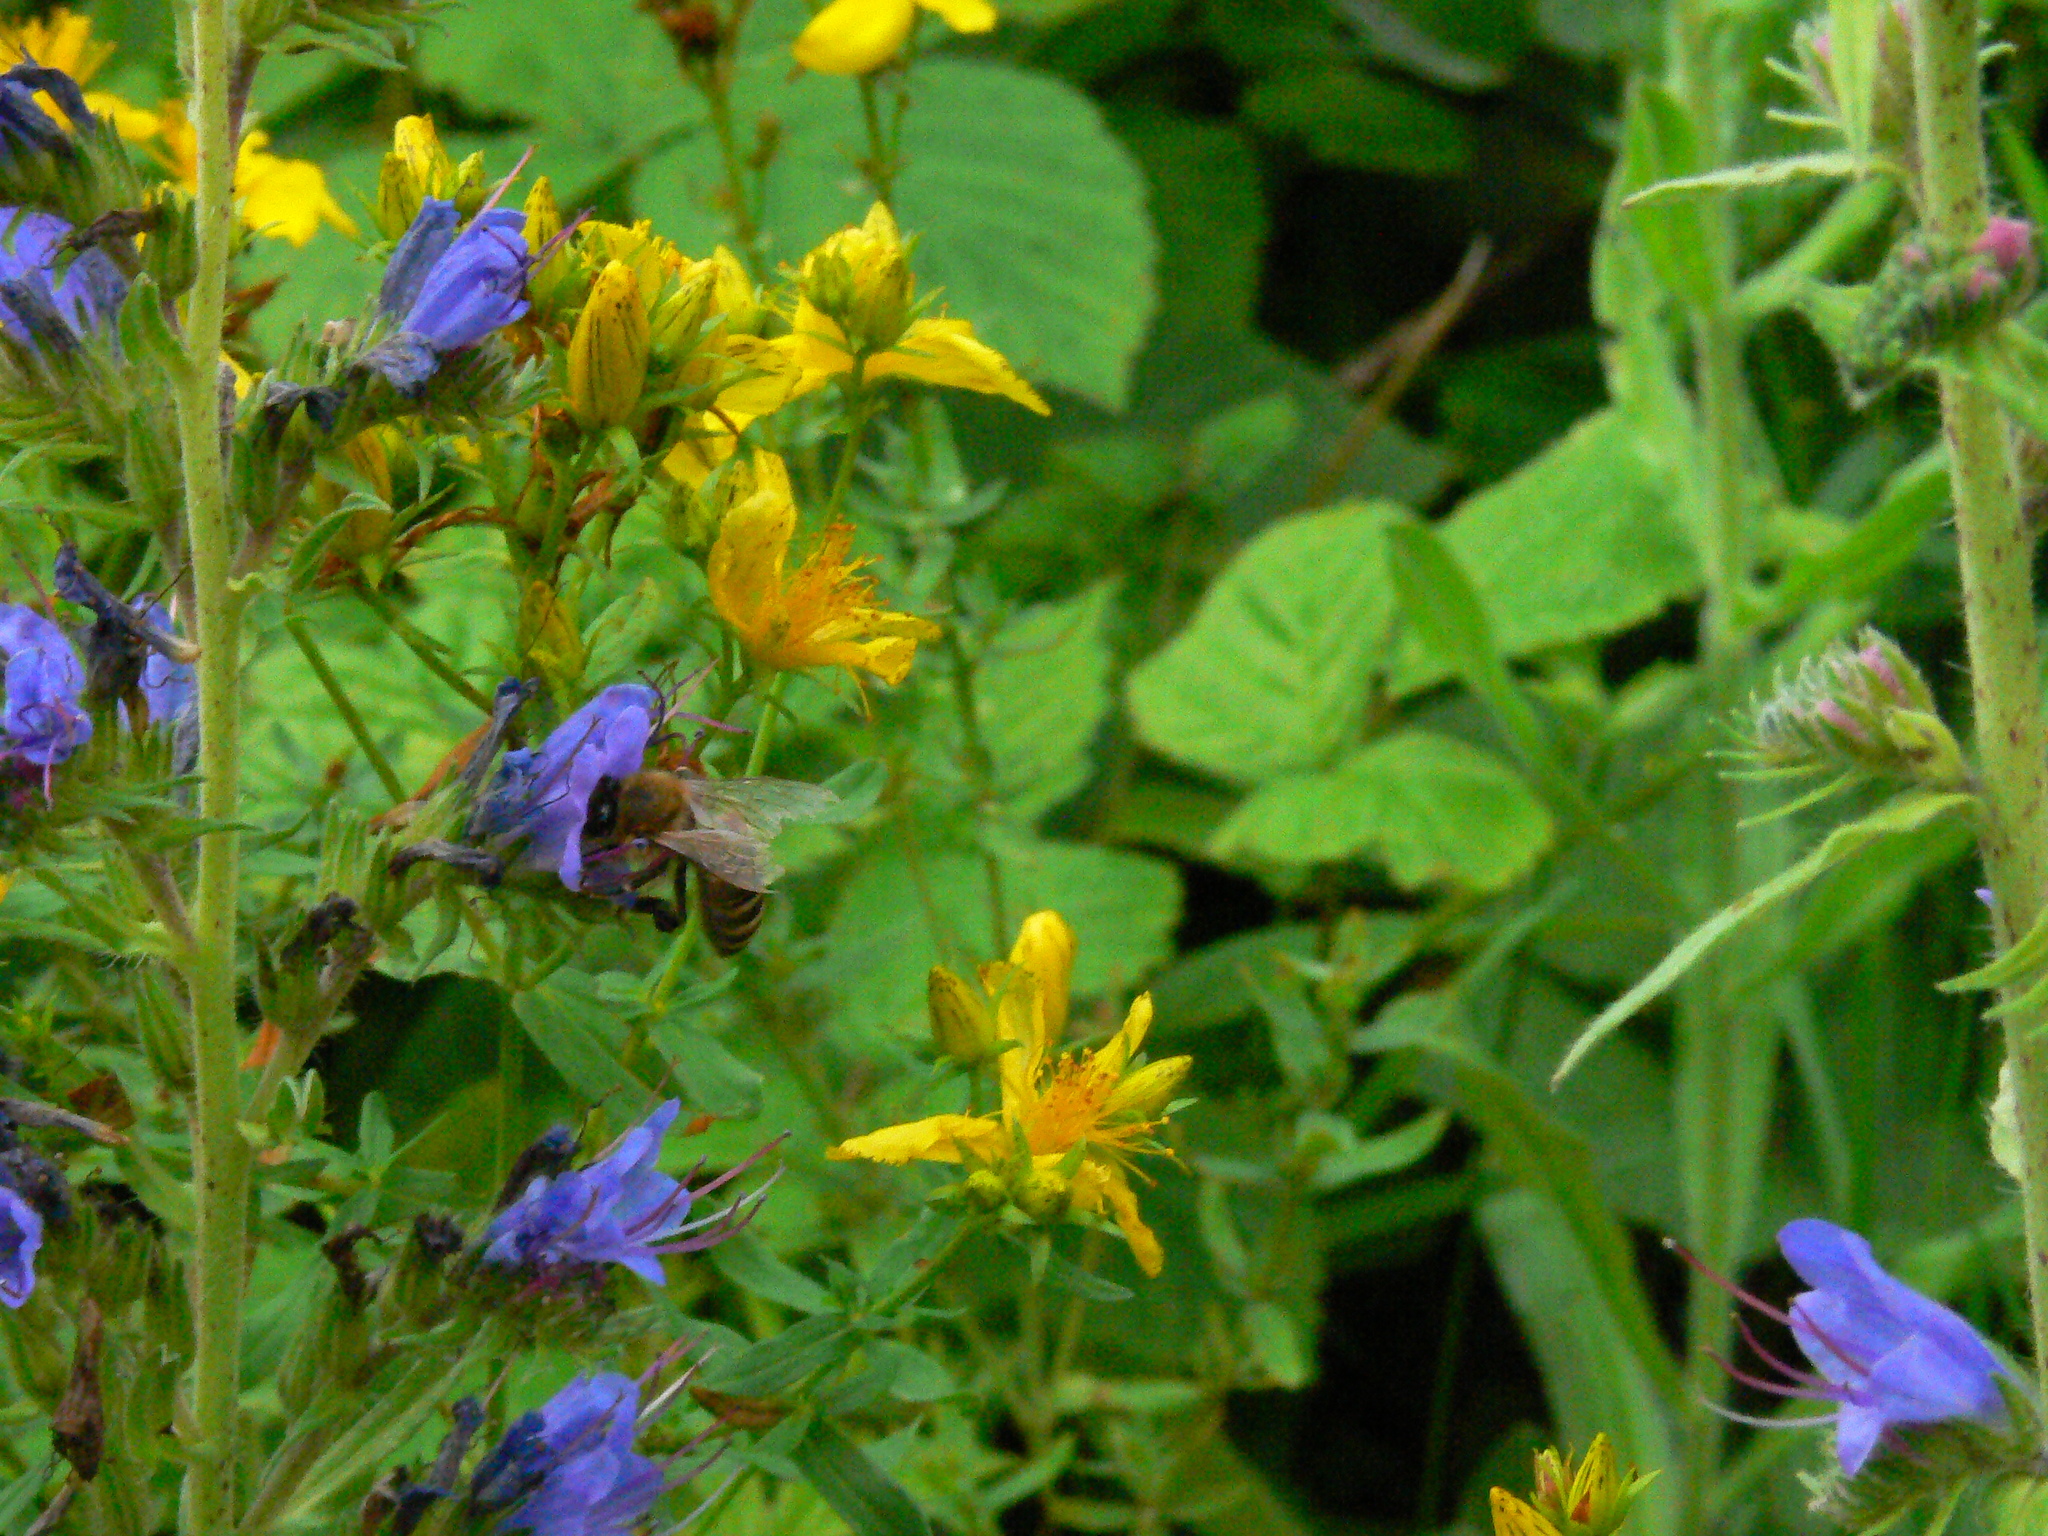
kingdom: Animalia
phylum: Arthropoda
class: Insecta
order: Hymenoptera
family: Apidae
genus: Apis
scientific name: Apis mellifera
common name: Honey bee
